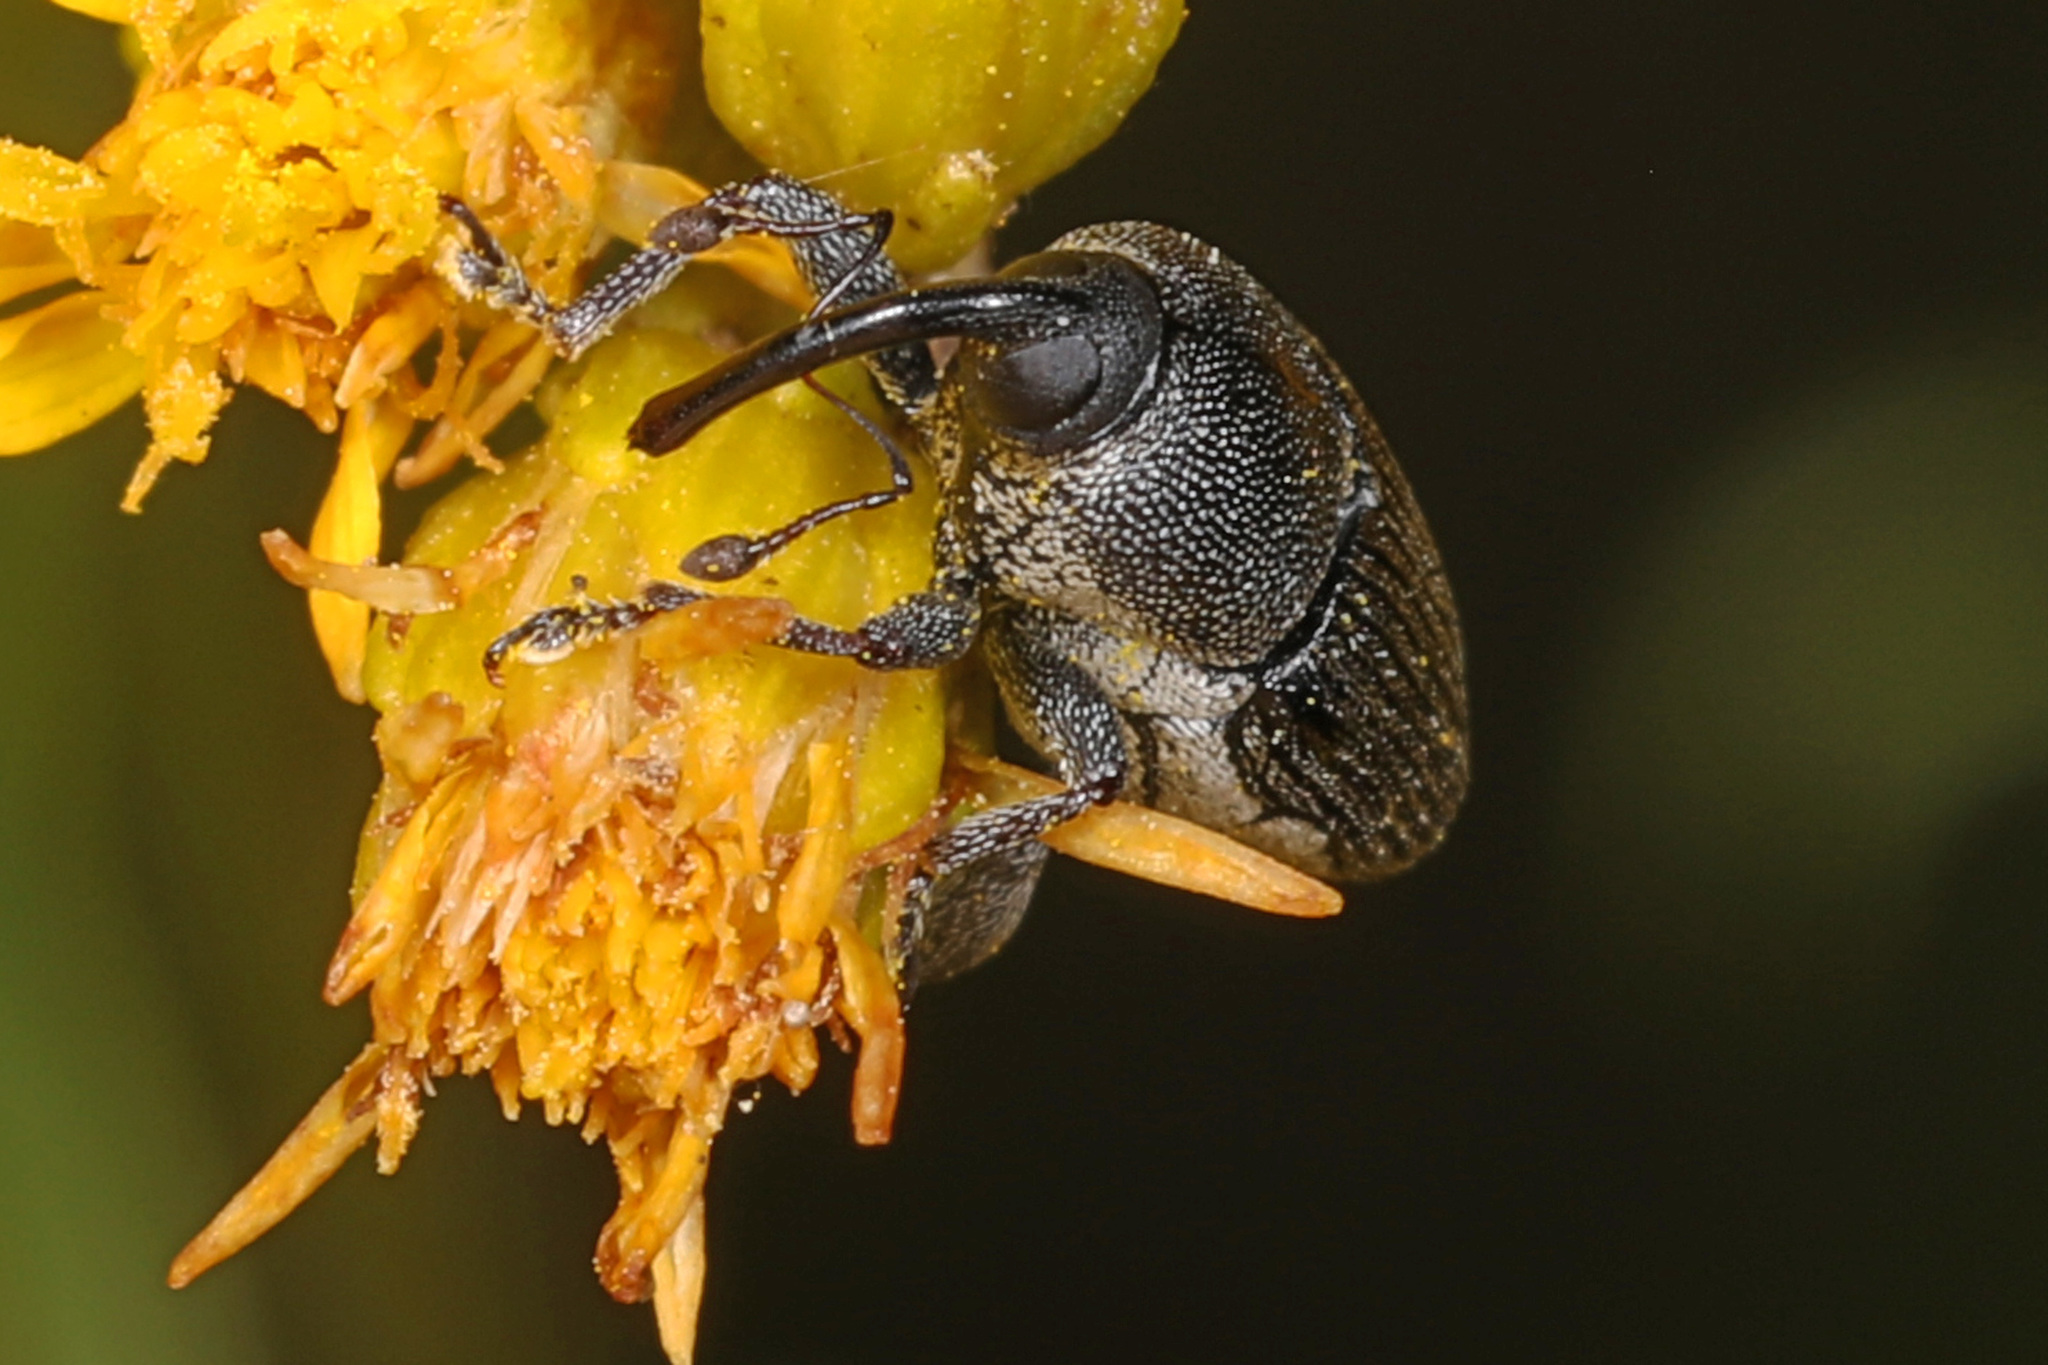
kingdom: Animalia
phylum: Arthropoda
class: Insecta
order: Coleoptera
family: Curculionidae
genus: Odontocorynus
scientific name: Odontocorynus salebrosus
